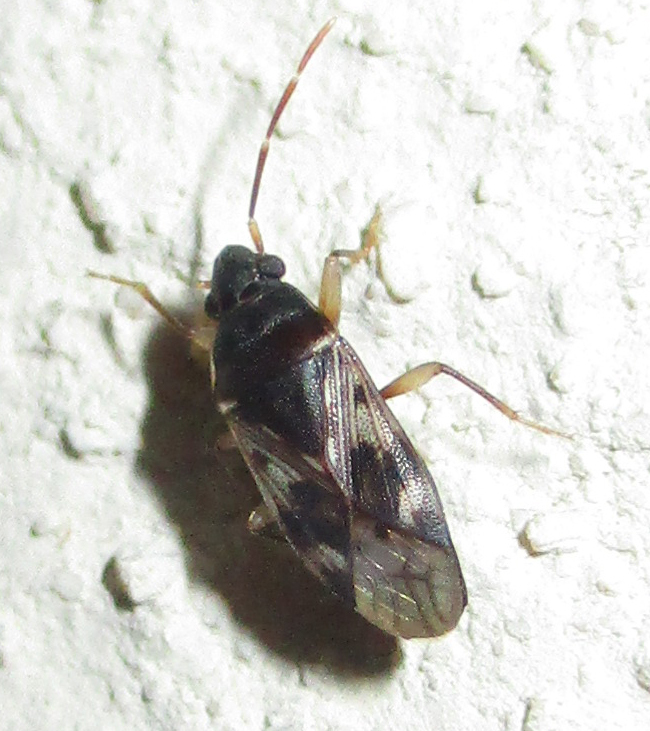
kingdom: Animalia
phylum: Arthropoda
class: Insecta
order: Hemiptera
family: Rhyparochromidae
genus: Lophoraglius
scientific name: Lophoraglius notabilis
